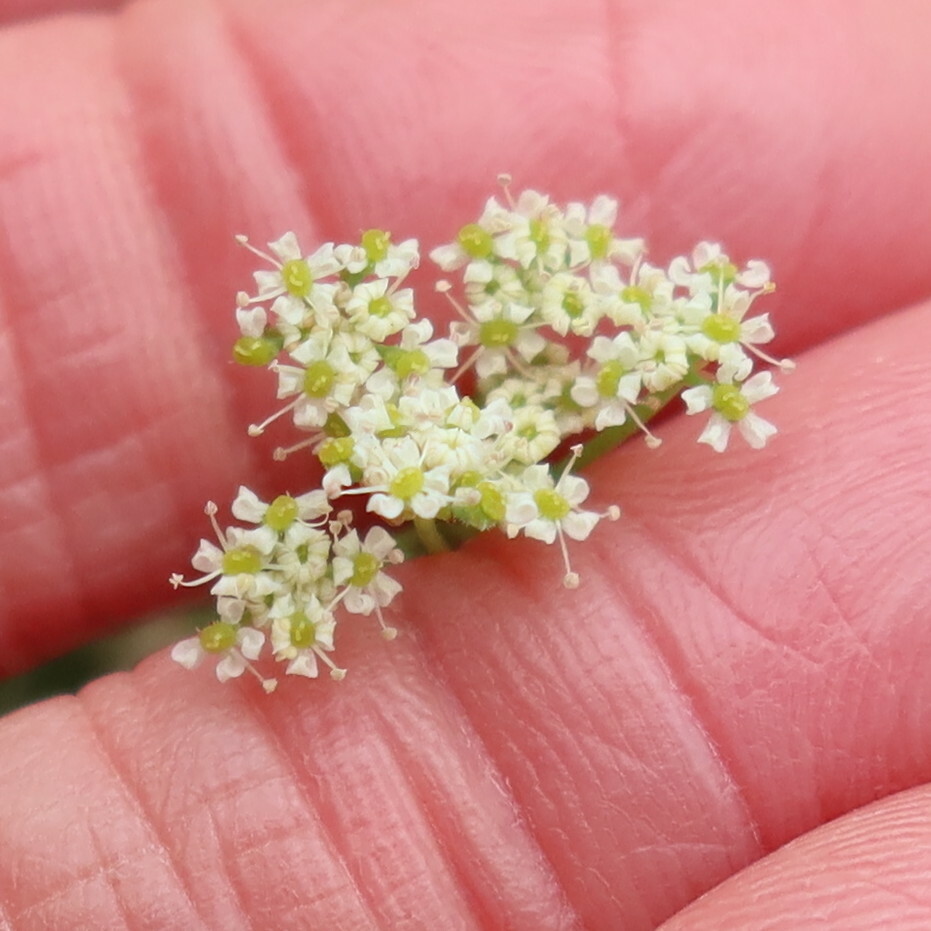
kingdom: Plantae
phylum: Tracheophyta
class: Magnoliopsida
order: Apiales
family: Apiaceae
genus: Dasispermum
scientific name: Dasispermum hispidum
